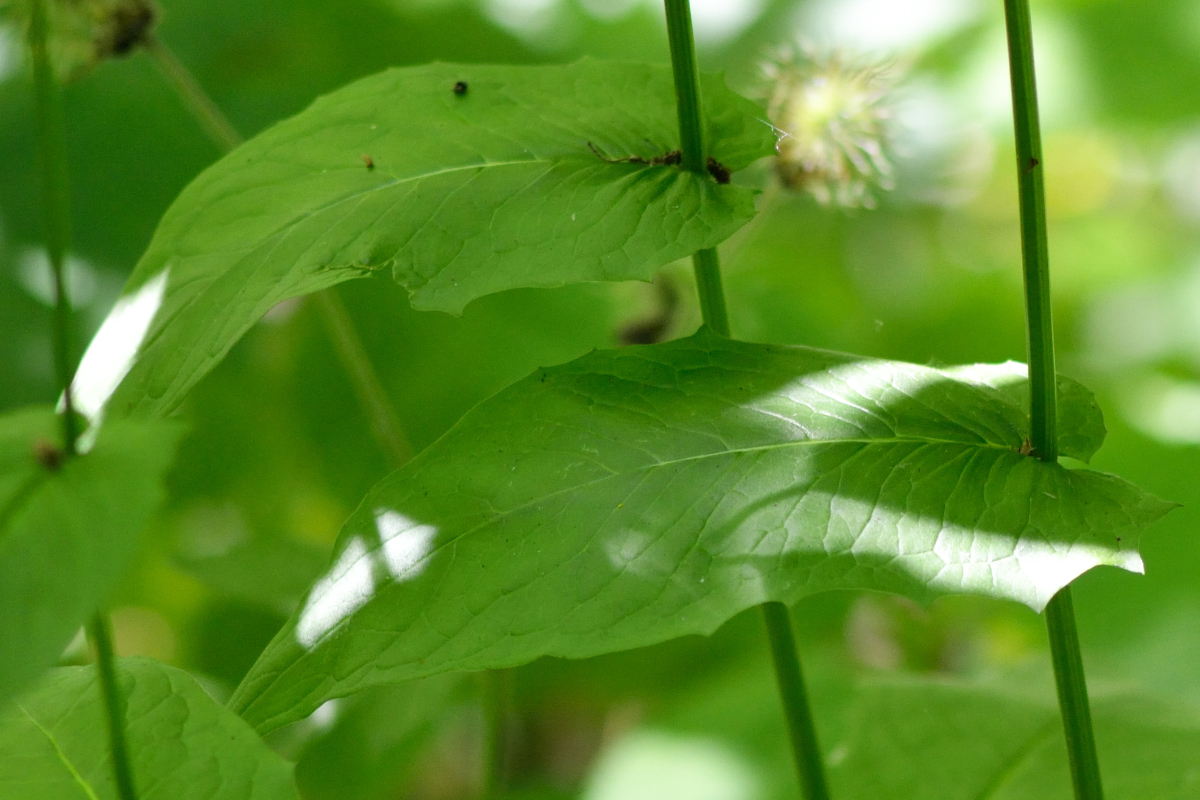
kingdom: Plantae
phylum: Tracheophyta
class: Magnoliopsida
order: Asterales
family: Asteraceae
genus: Crepis
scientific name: Crepis paludosa
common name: Marsh hawk's-beard
